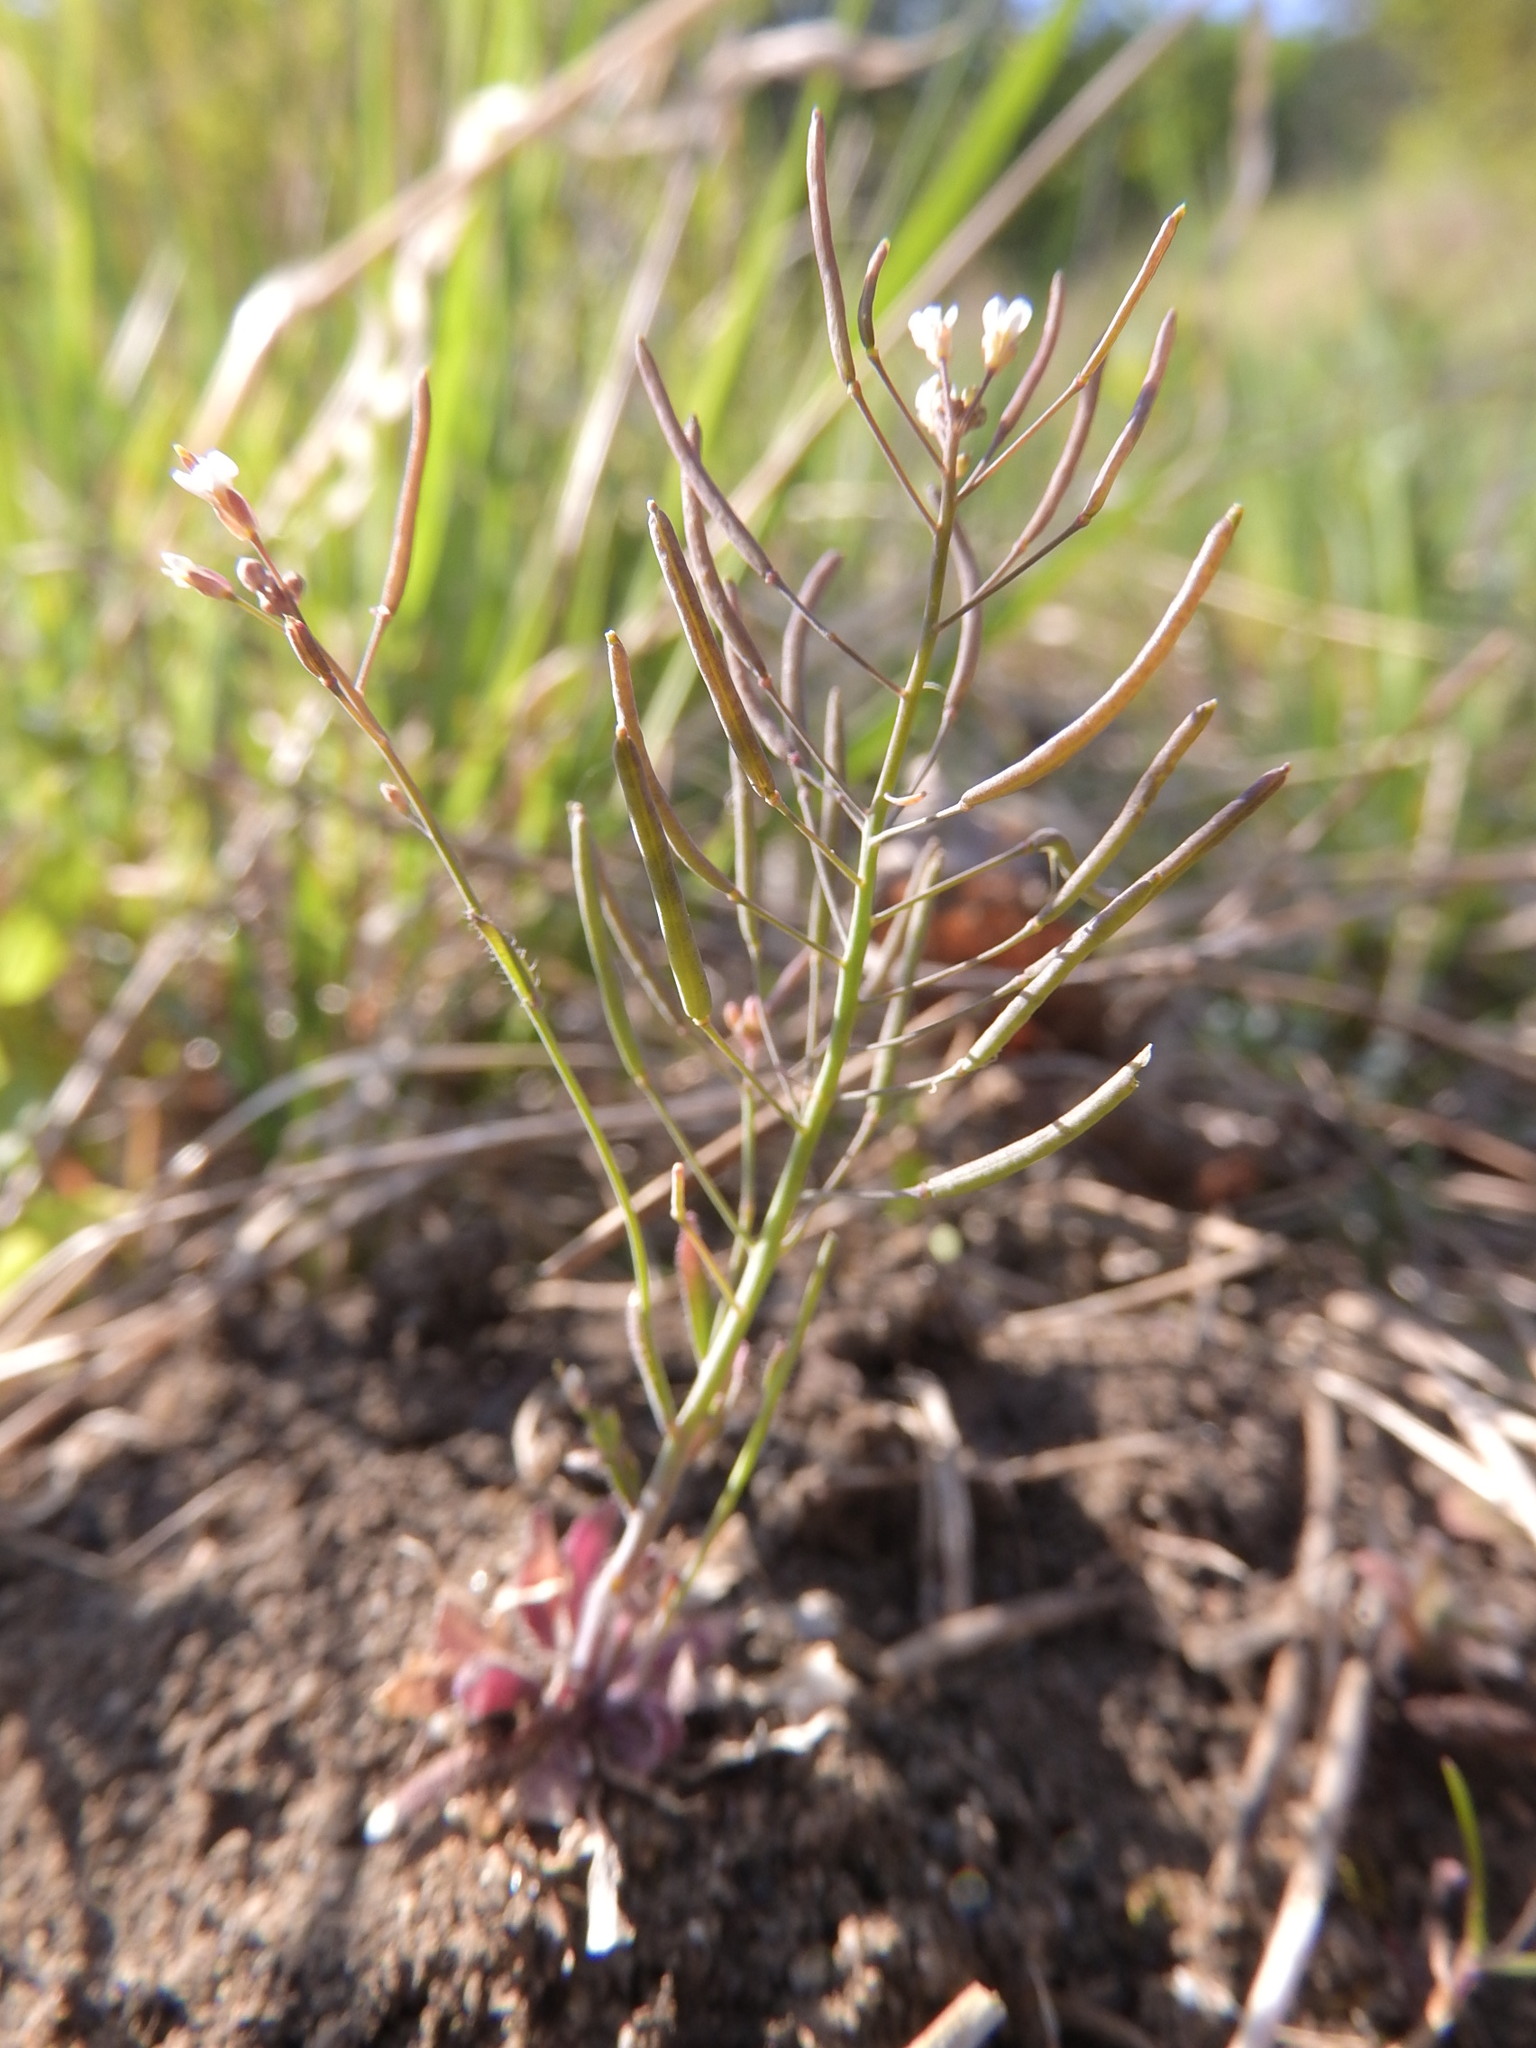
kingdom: Plantae
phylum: Tracheophyta
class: Magnoliopsida
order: Brassicales
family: Brassicaceae
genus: Arabidopsis
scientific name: Arabidopsis thaliana
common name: Thale cress
